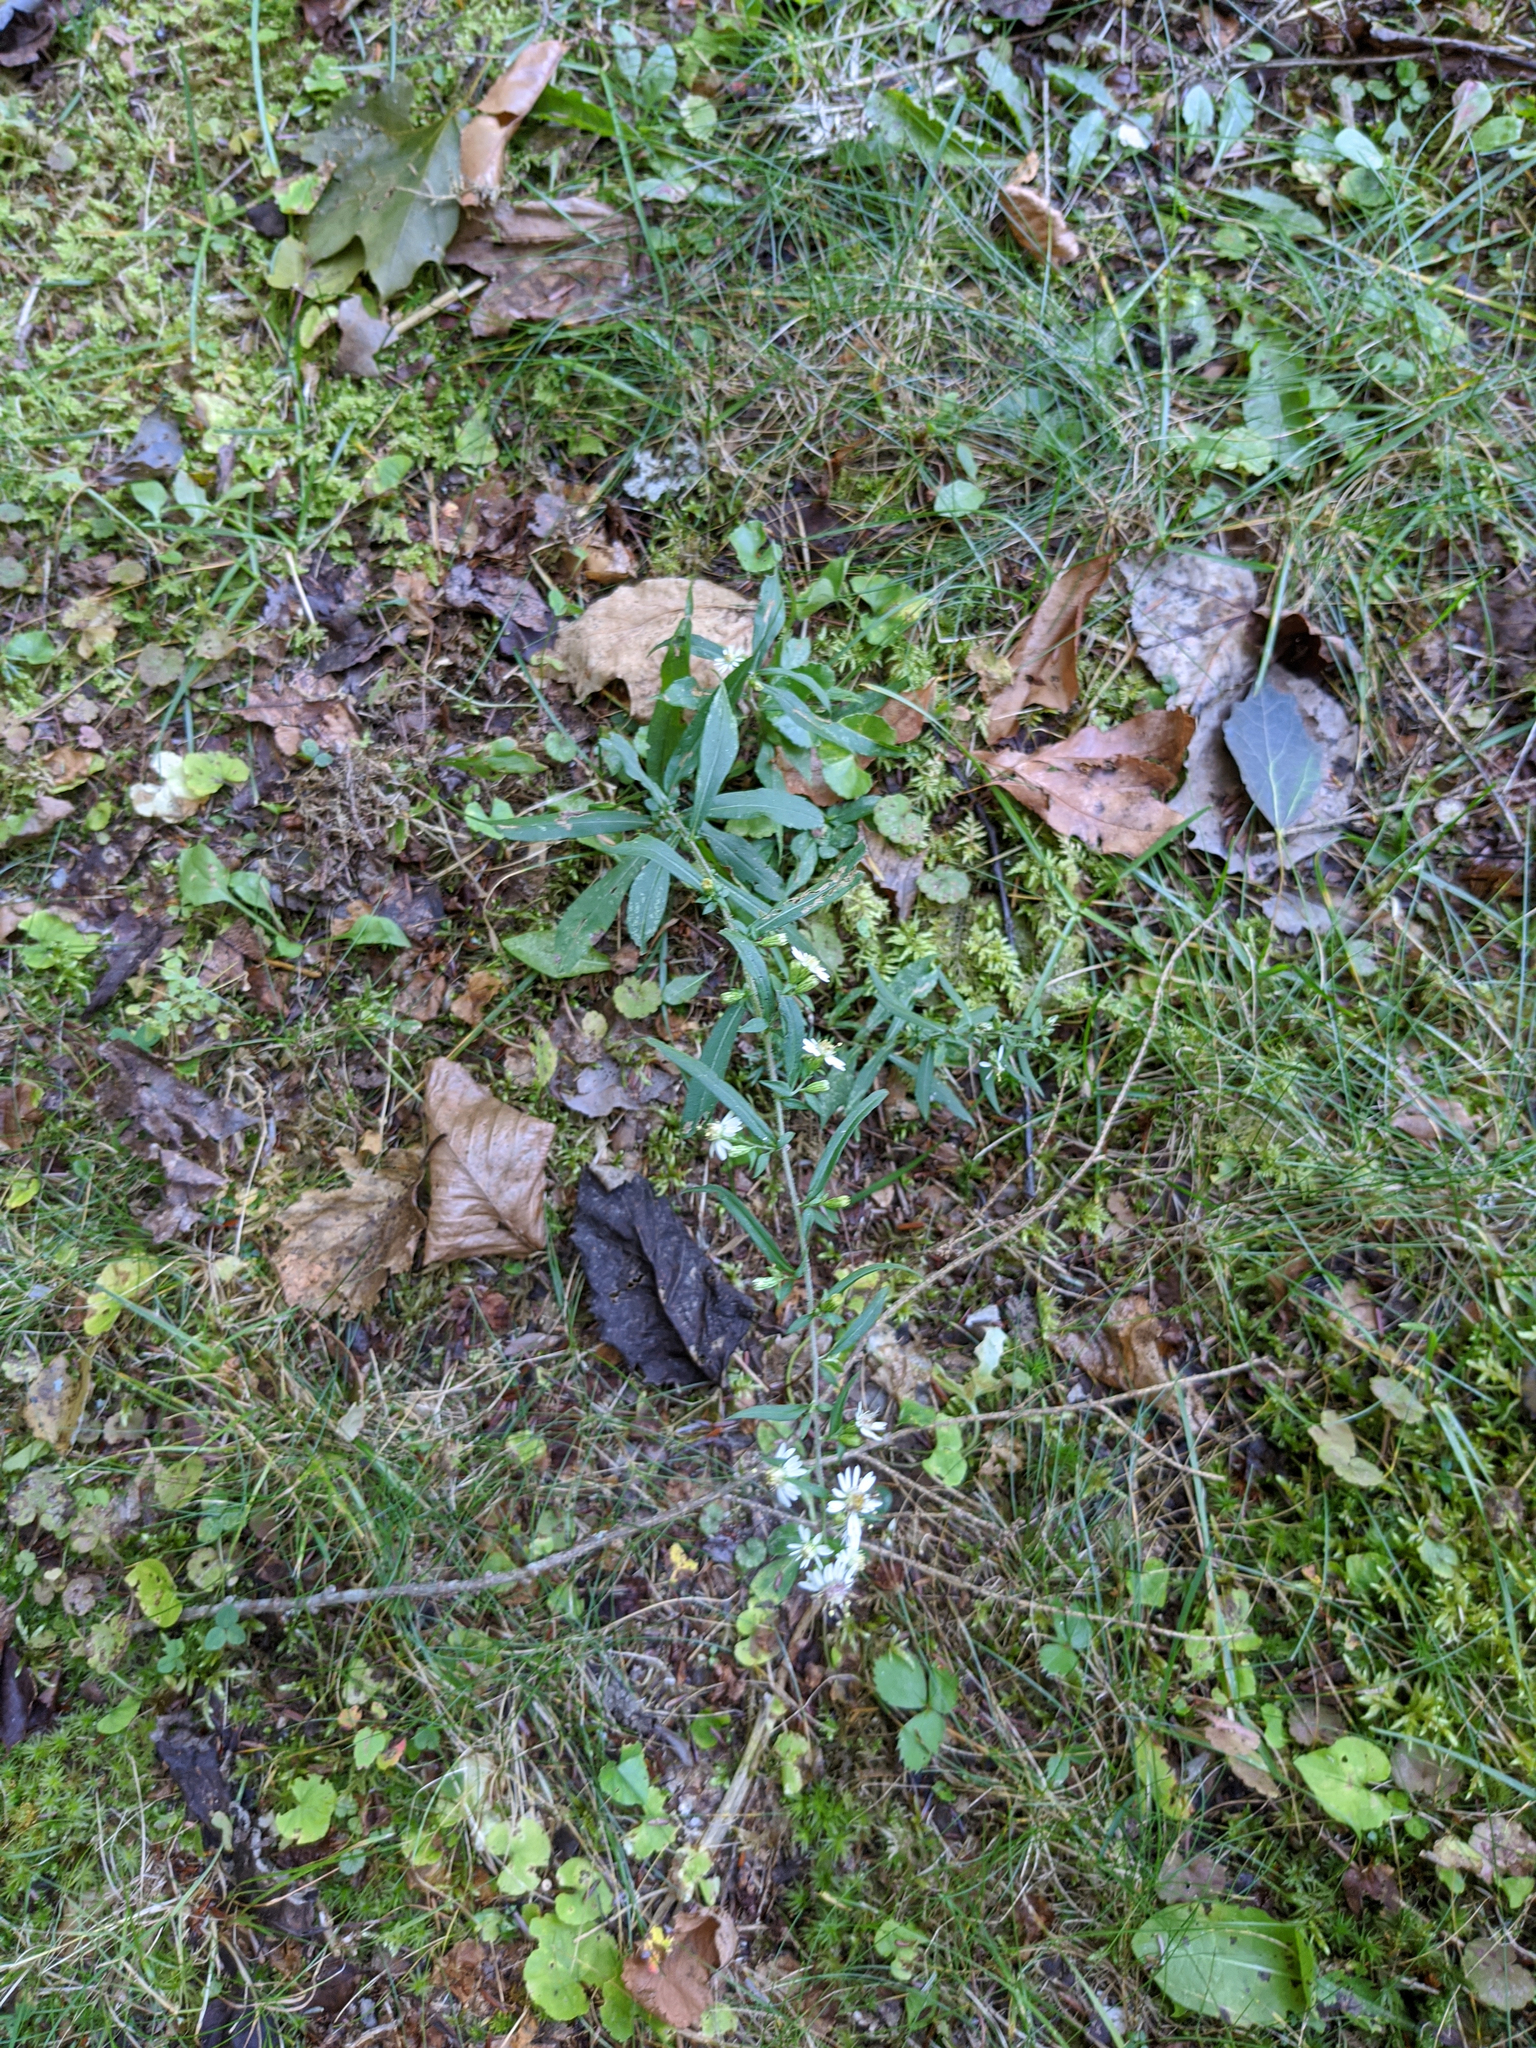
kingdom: Plantae
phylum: Tracheophyta
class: Magnoliopsida
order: Asterales
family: Asteraceae
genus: Symphyotrichum
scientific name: Symphyotrichum lateriflorum
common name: Calico aster
